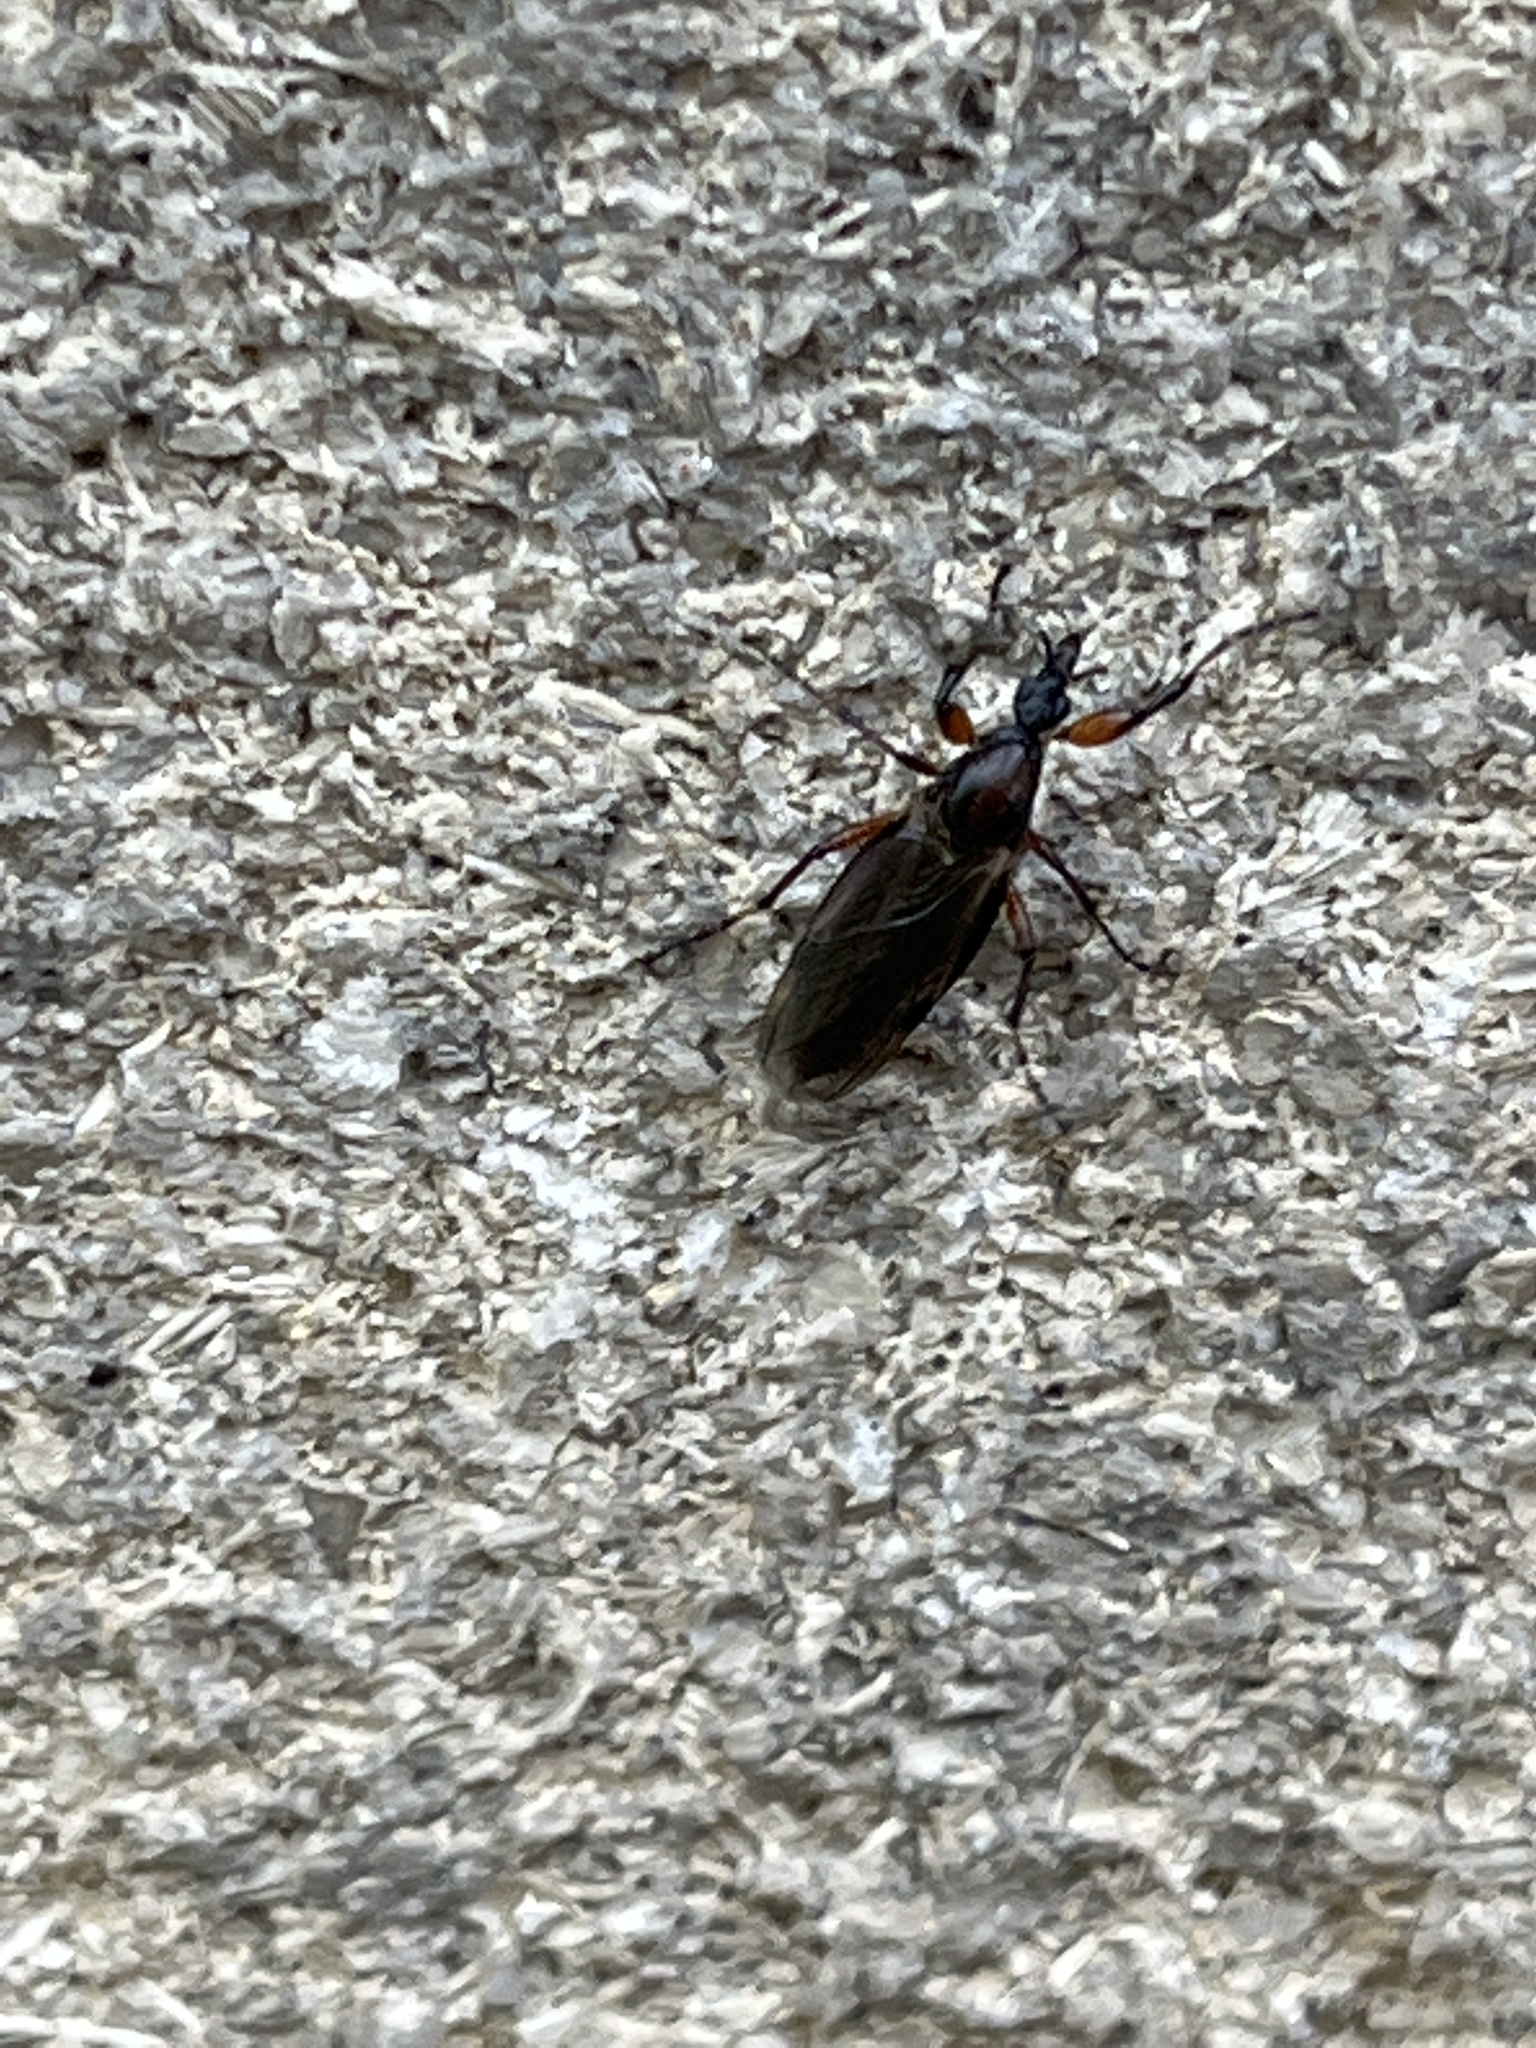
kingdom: Animalia
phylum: Arthropoda
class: Insecta
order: Diptera
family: Bibionidae
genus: Bibio
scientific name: Bibio articulatus
